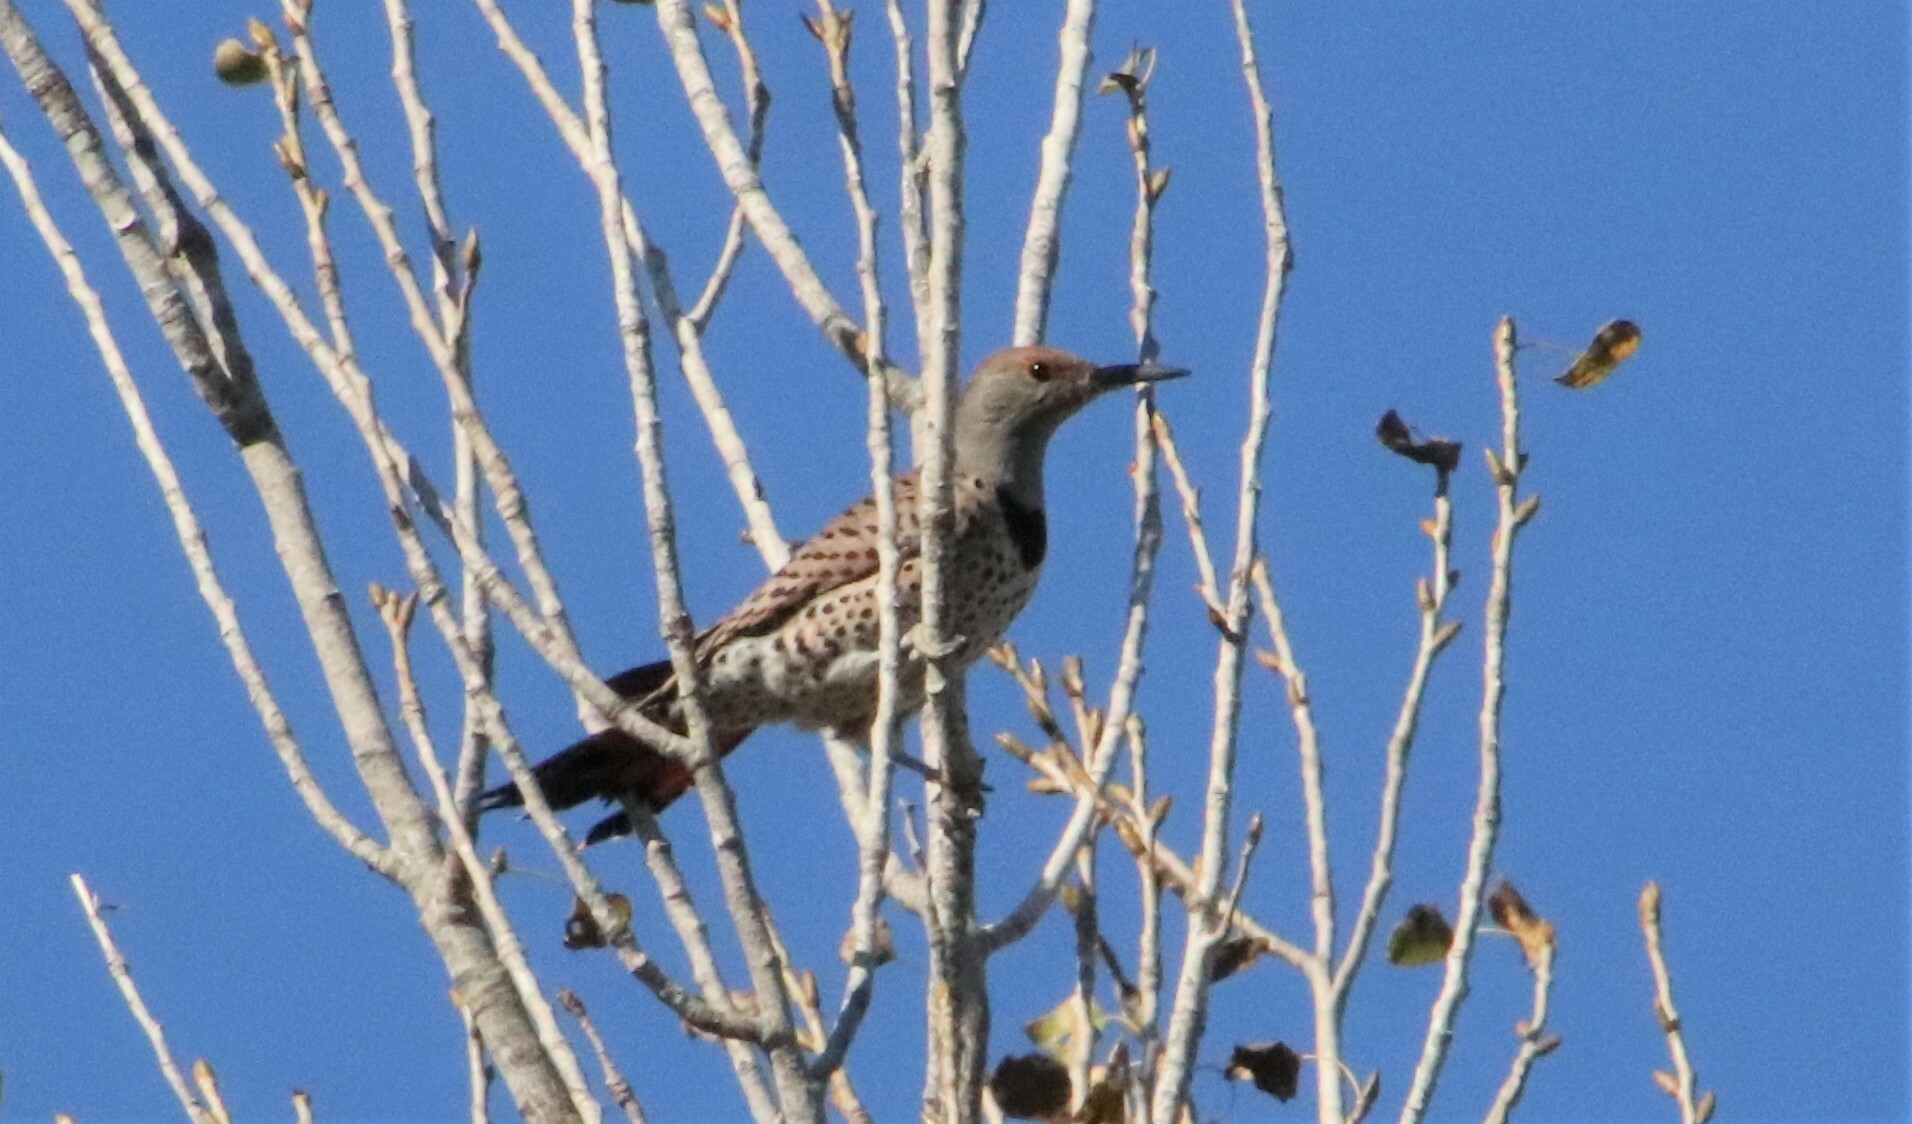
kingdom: Animalia
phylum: Chordata
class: Aves
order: Piciformes
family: Picidae
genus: Colaptes
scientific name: Colaptes auratus
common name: Northern flicker
